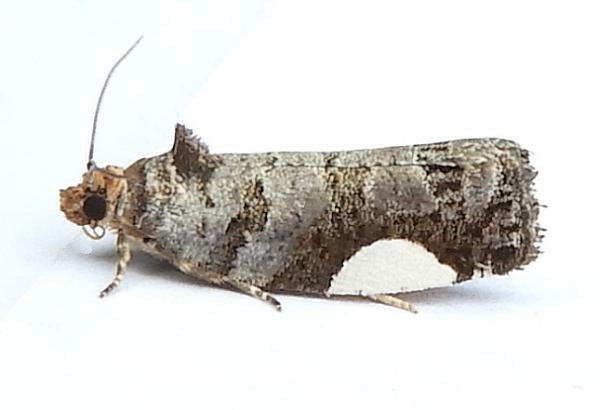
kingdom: Animalia
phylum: Arthropoda
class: Insecta
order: Lepidoptera
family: Tortricidae
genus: Hedya
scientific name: Hedya chionosema
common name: White-spotted hedya moth
